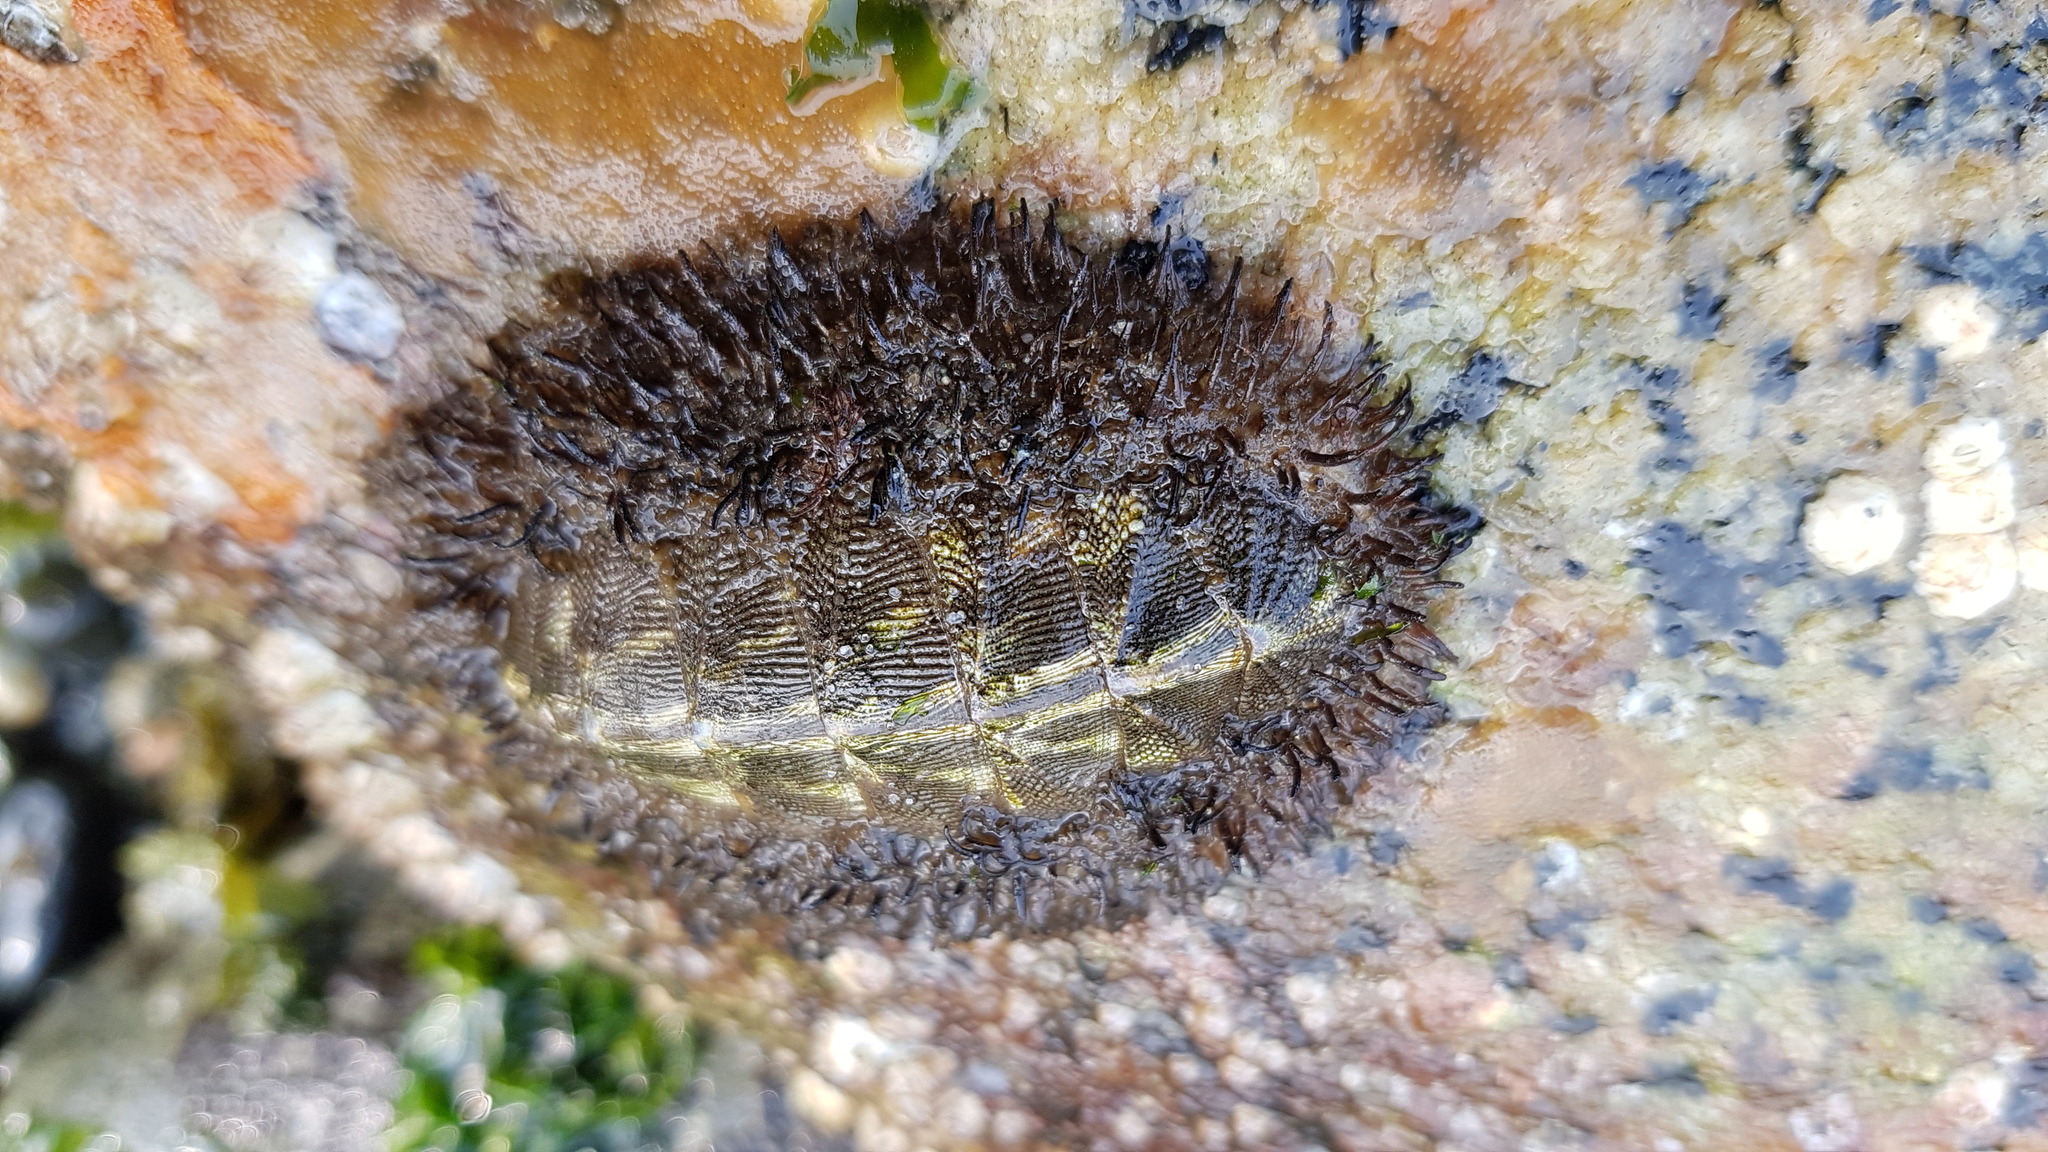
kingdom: Animalia
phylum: Mollusca
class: Polyplacophora
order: Chitonida
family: Mopaliidae
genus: Mopalia
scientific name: Mopalia muscosa
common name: Mossy chiton
